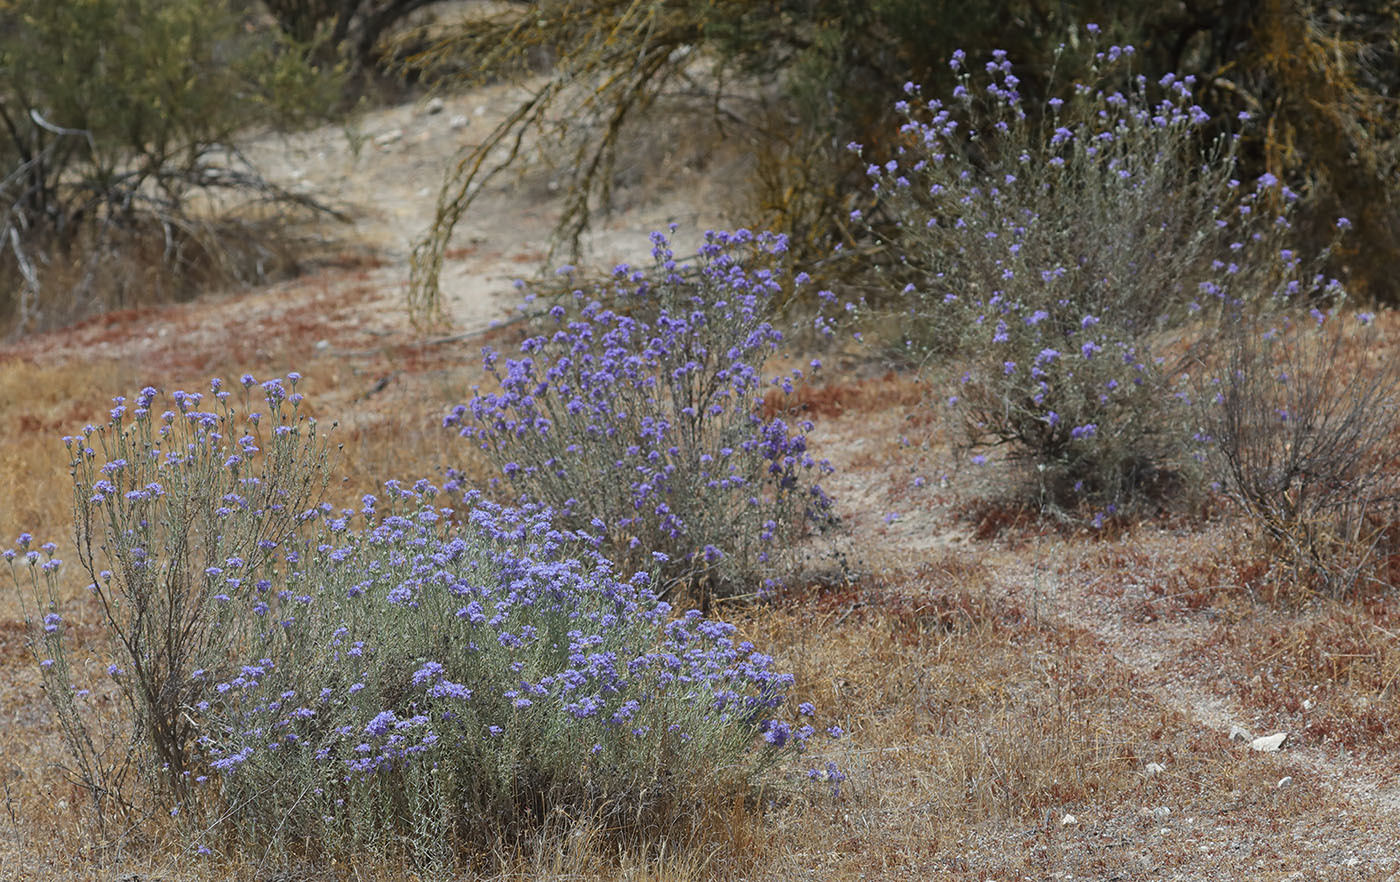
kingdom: Plantae
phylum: Tracheophyta
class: Magnoliopsida
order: Ericales
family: Polemoniaceae
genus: Eriastrum
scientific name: Eriastrum densifolium
